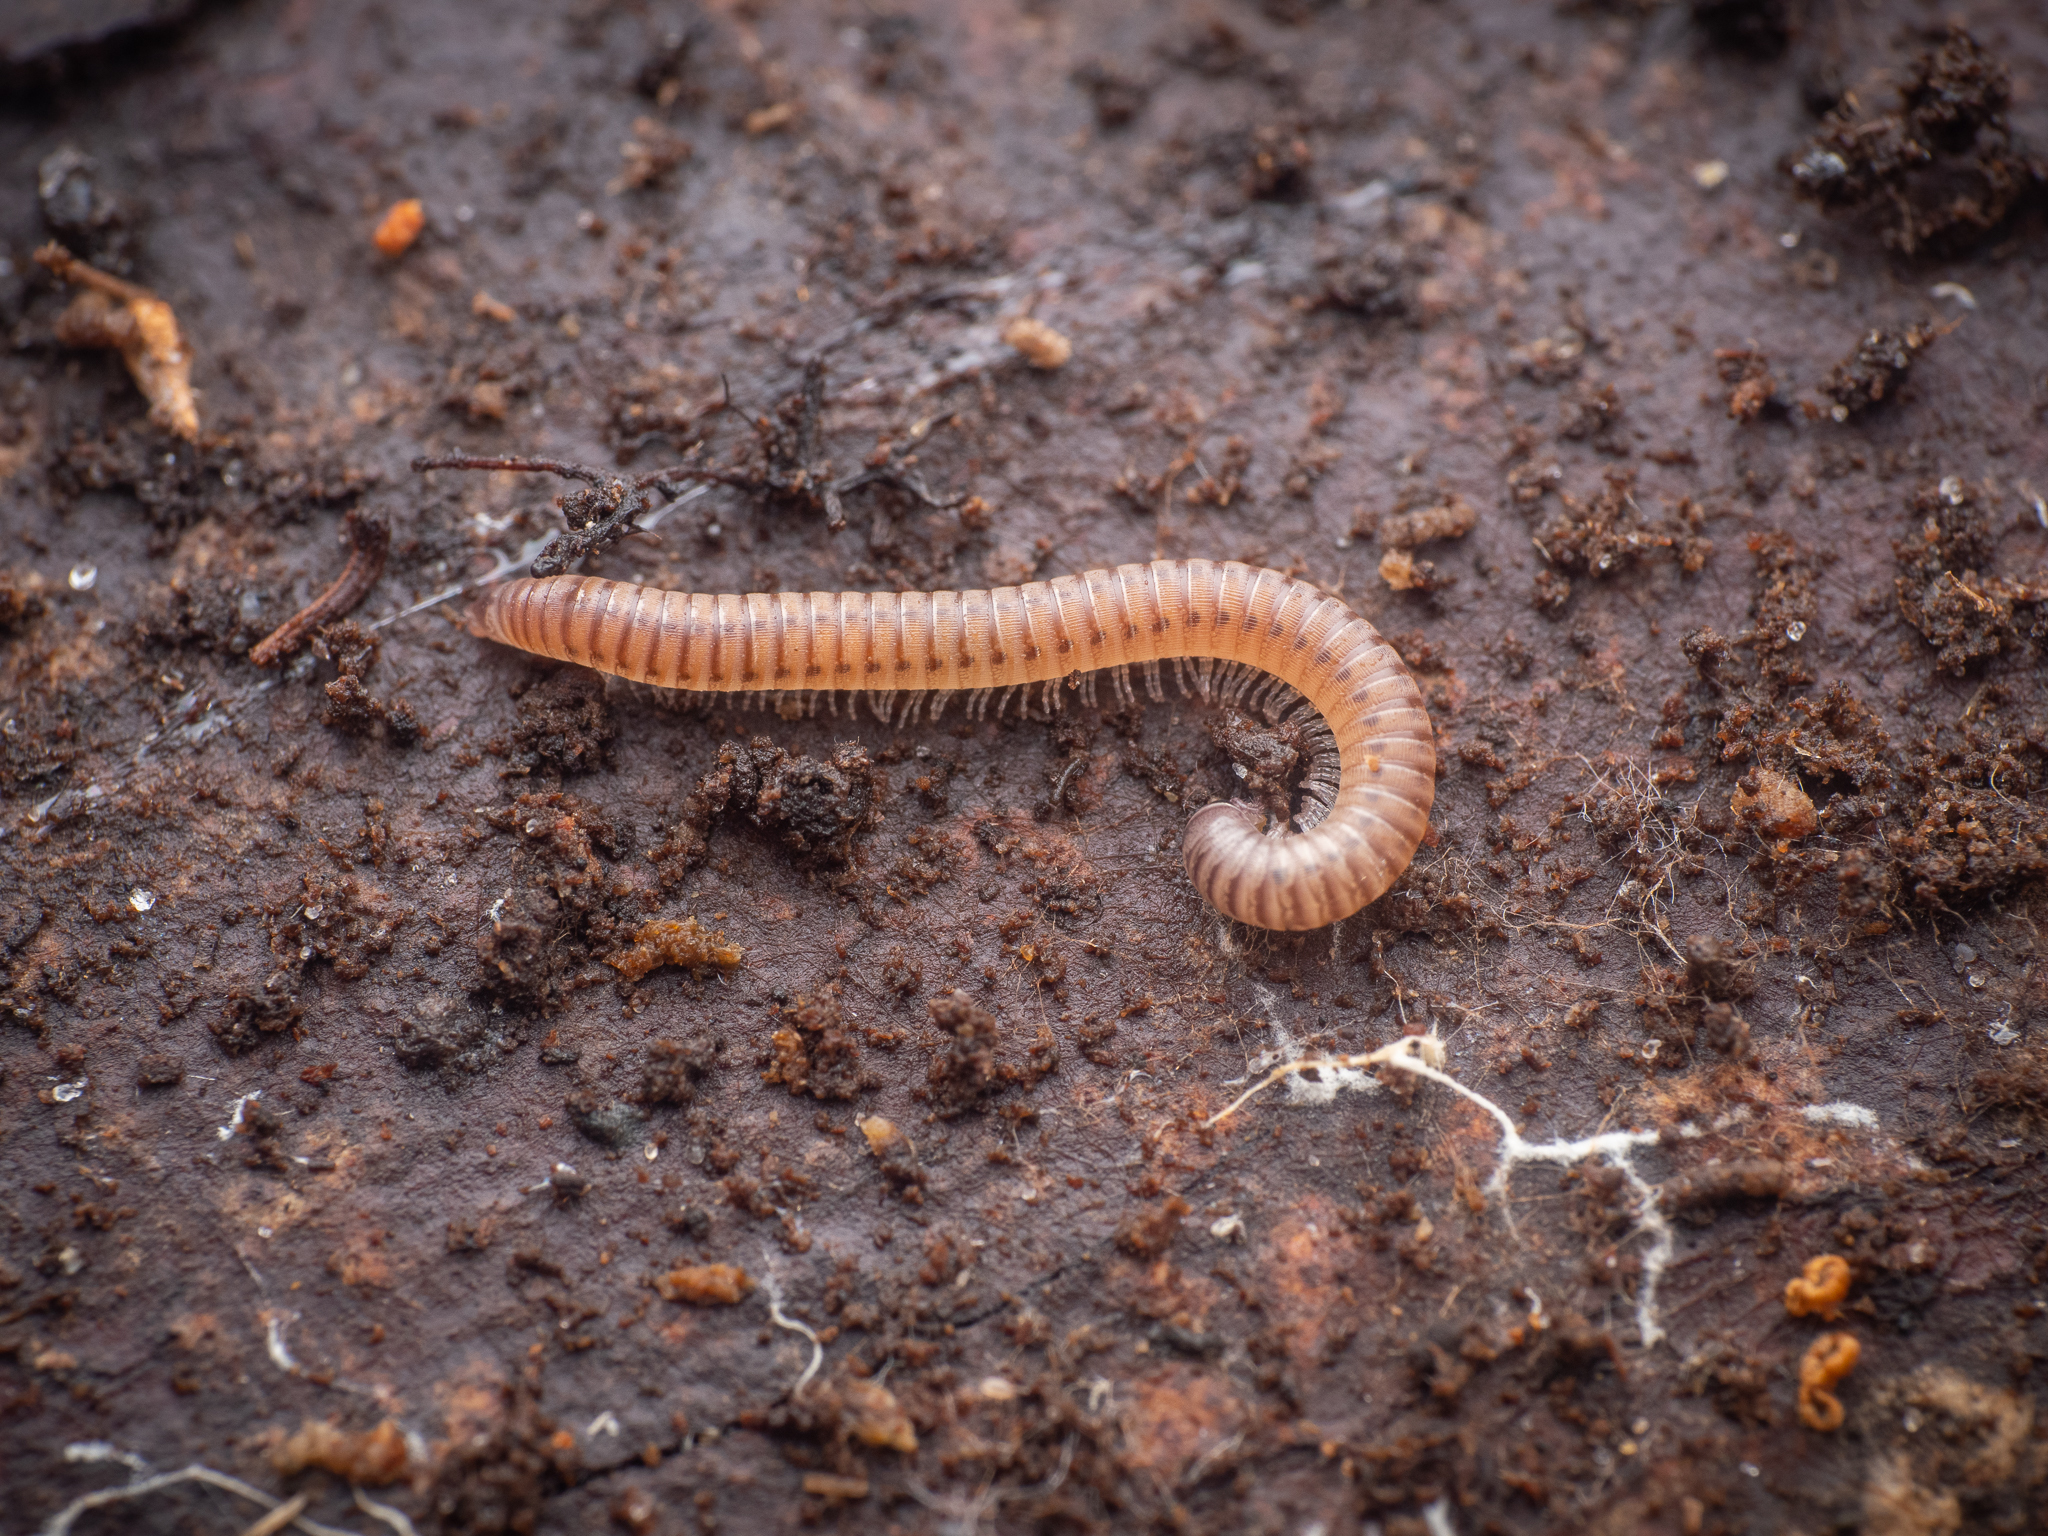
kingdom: Animalia
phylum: Arthropoda
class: Diplopoda
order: Julida
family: Julidae
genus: Cylindroiulus
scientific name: Cylindroiulus punctatus
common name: Blunt-tailed millipede
